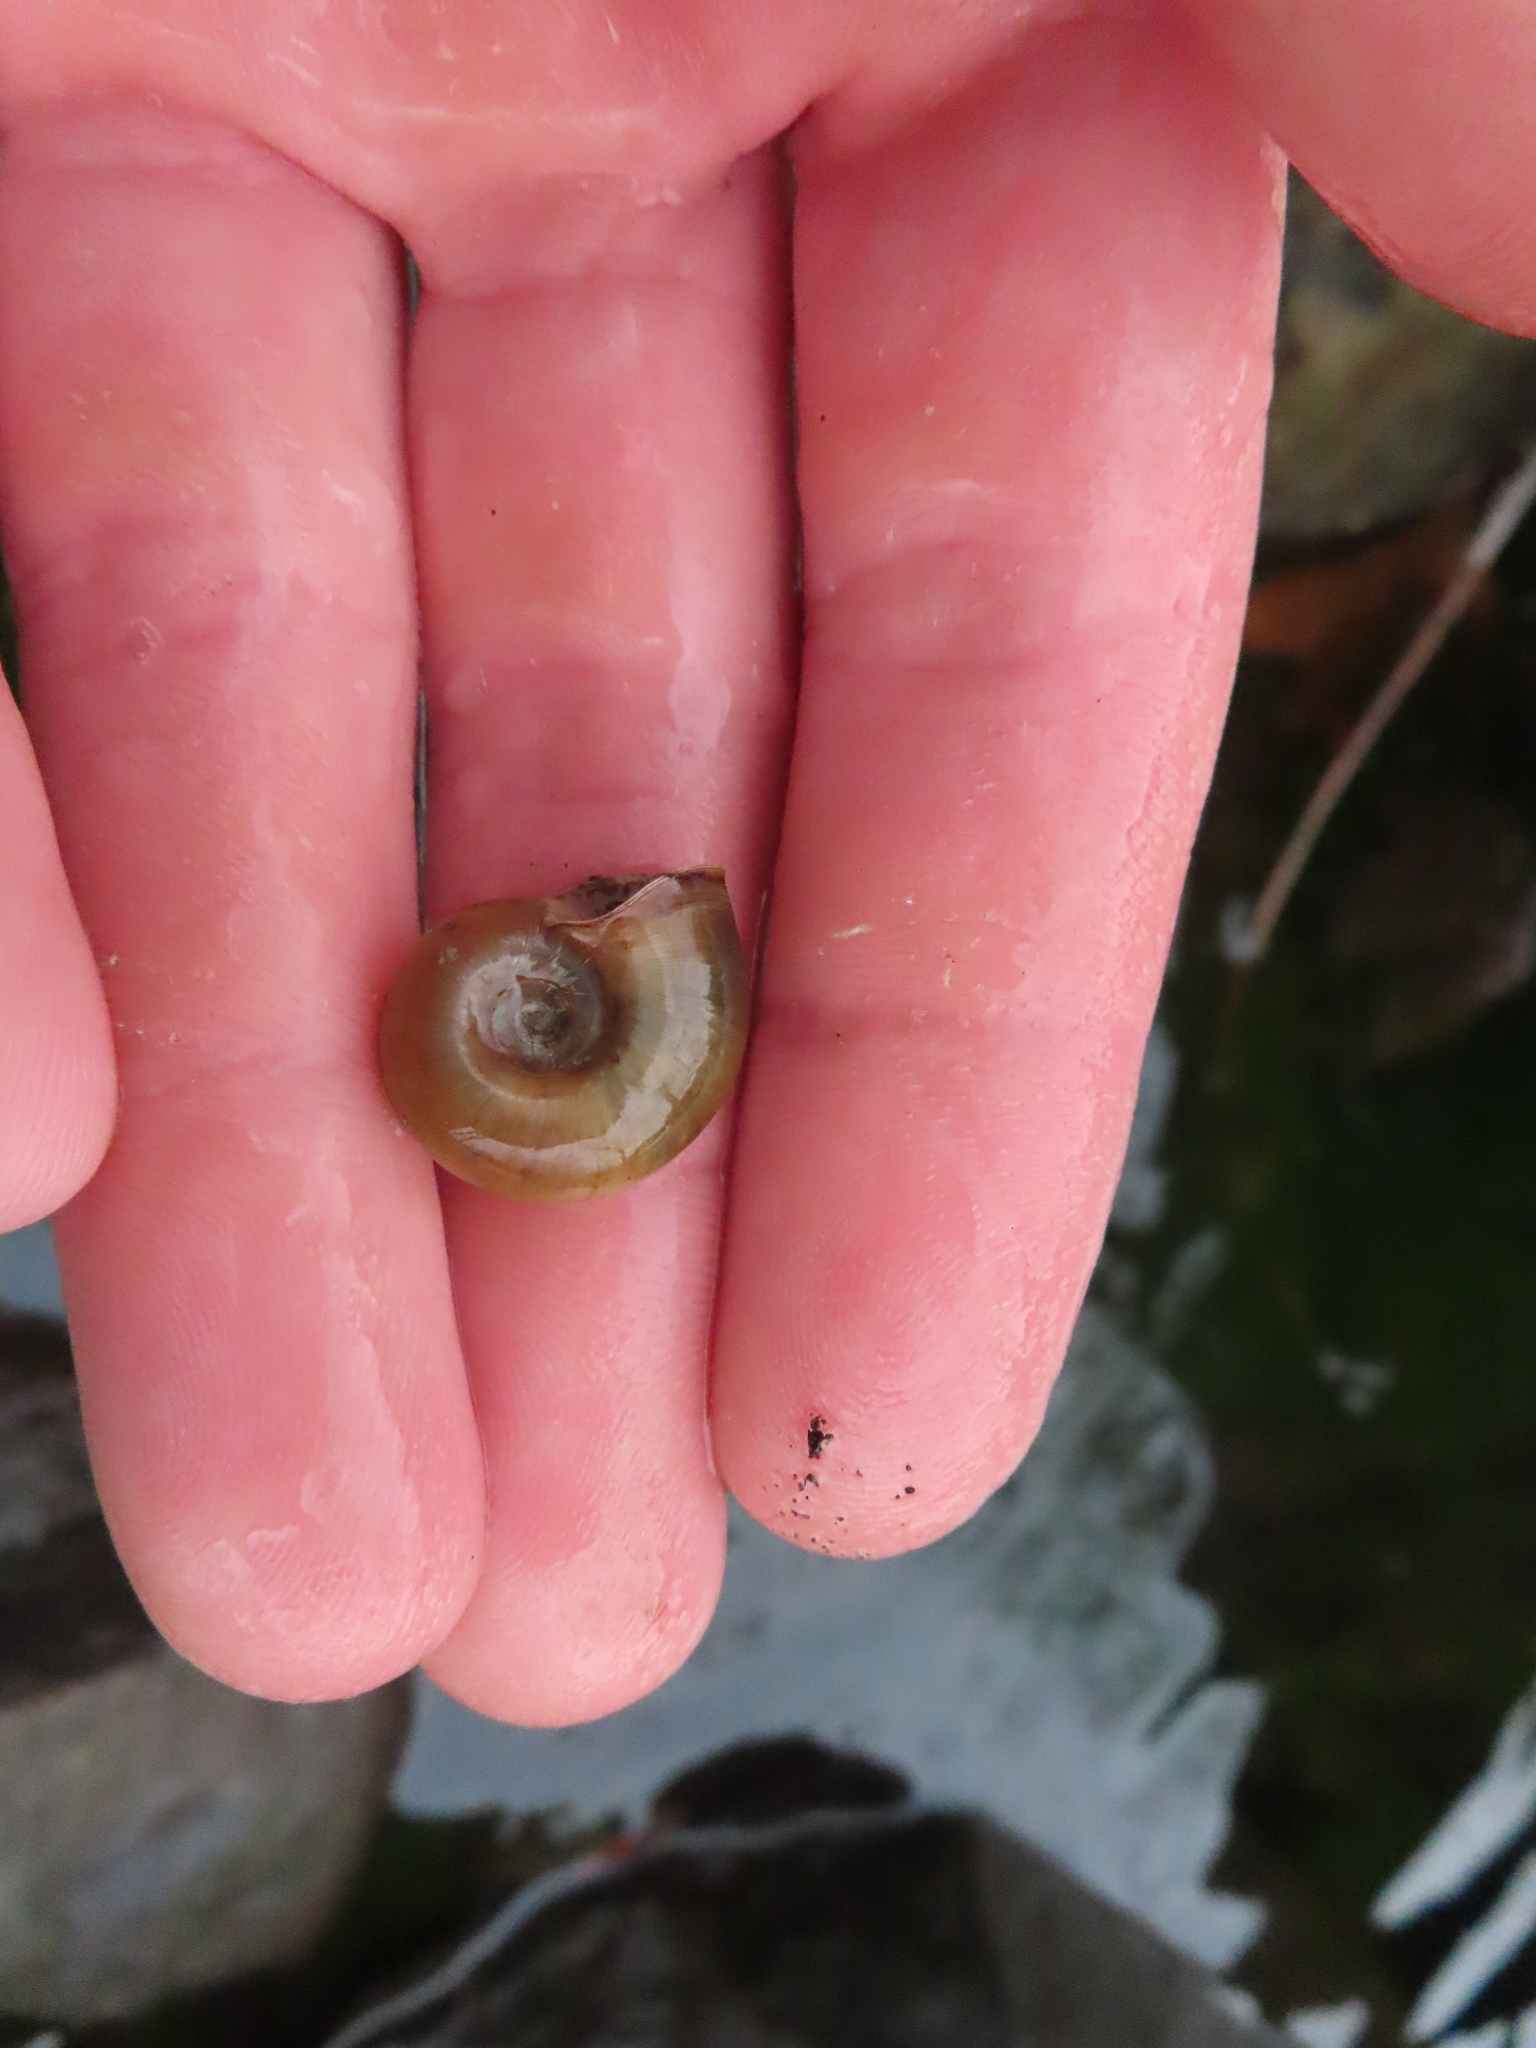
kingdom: Animalia
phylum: Mollusca
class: Gastropoda
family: Planorbidae
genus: Planorbella
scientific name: Planorbella trivolvis
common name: Marsh rams-horn
